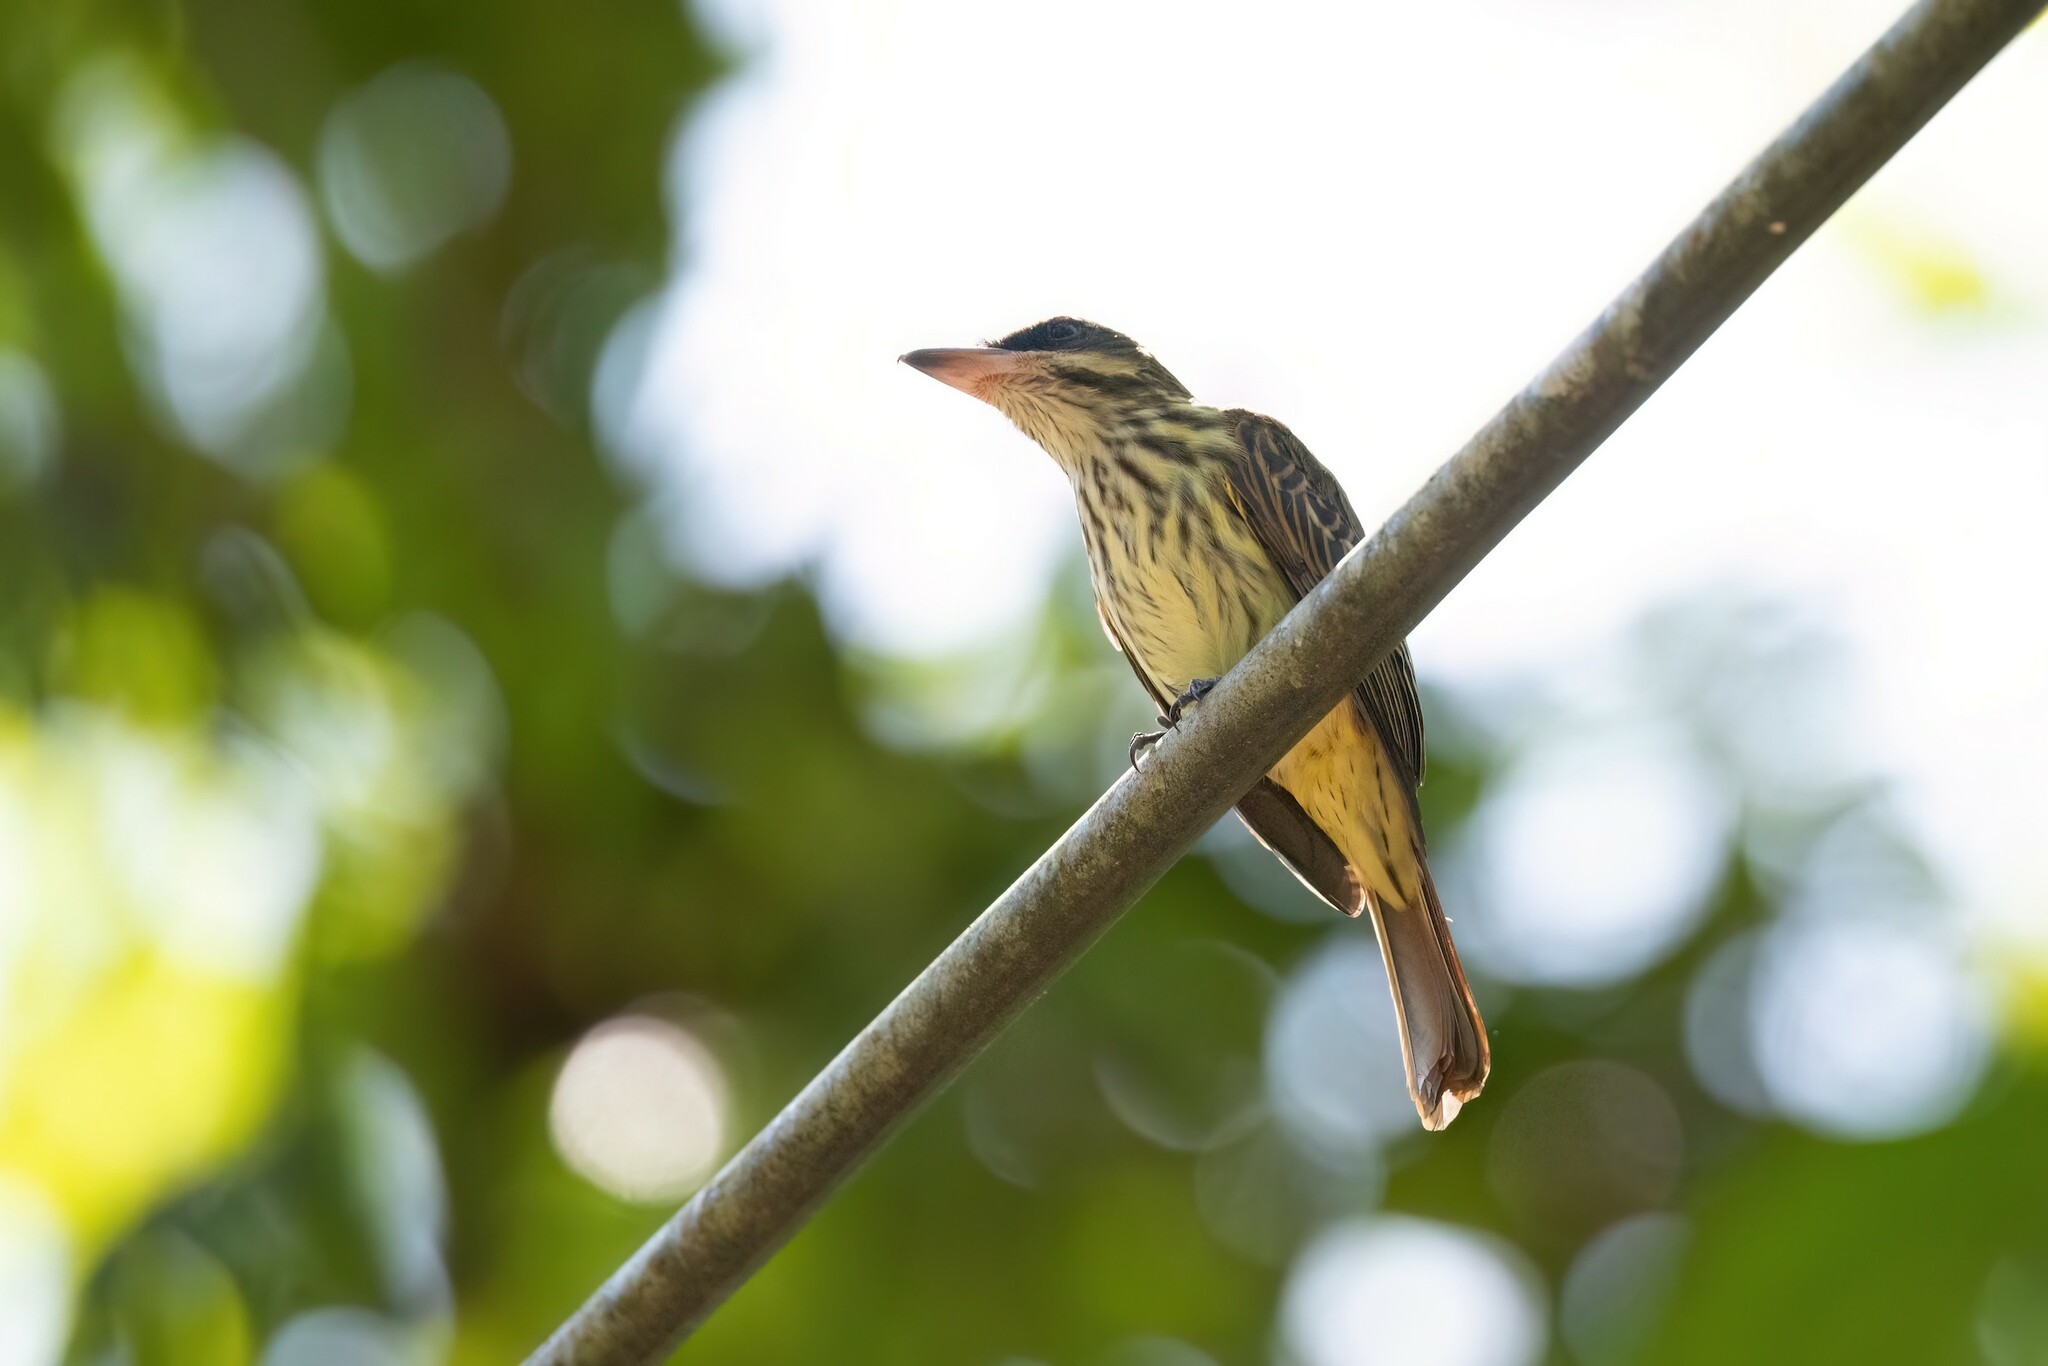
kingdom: Animalia
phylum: Chordata
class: Aves
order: Passeriformes
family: Tyrannidae
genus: Myiodynastes
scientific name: Myiodynastes maculatus
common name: Streaked flycatcher
